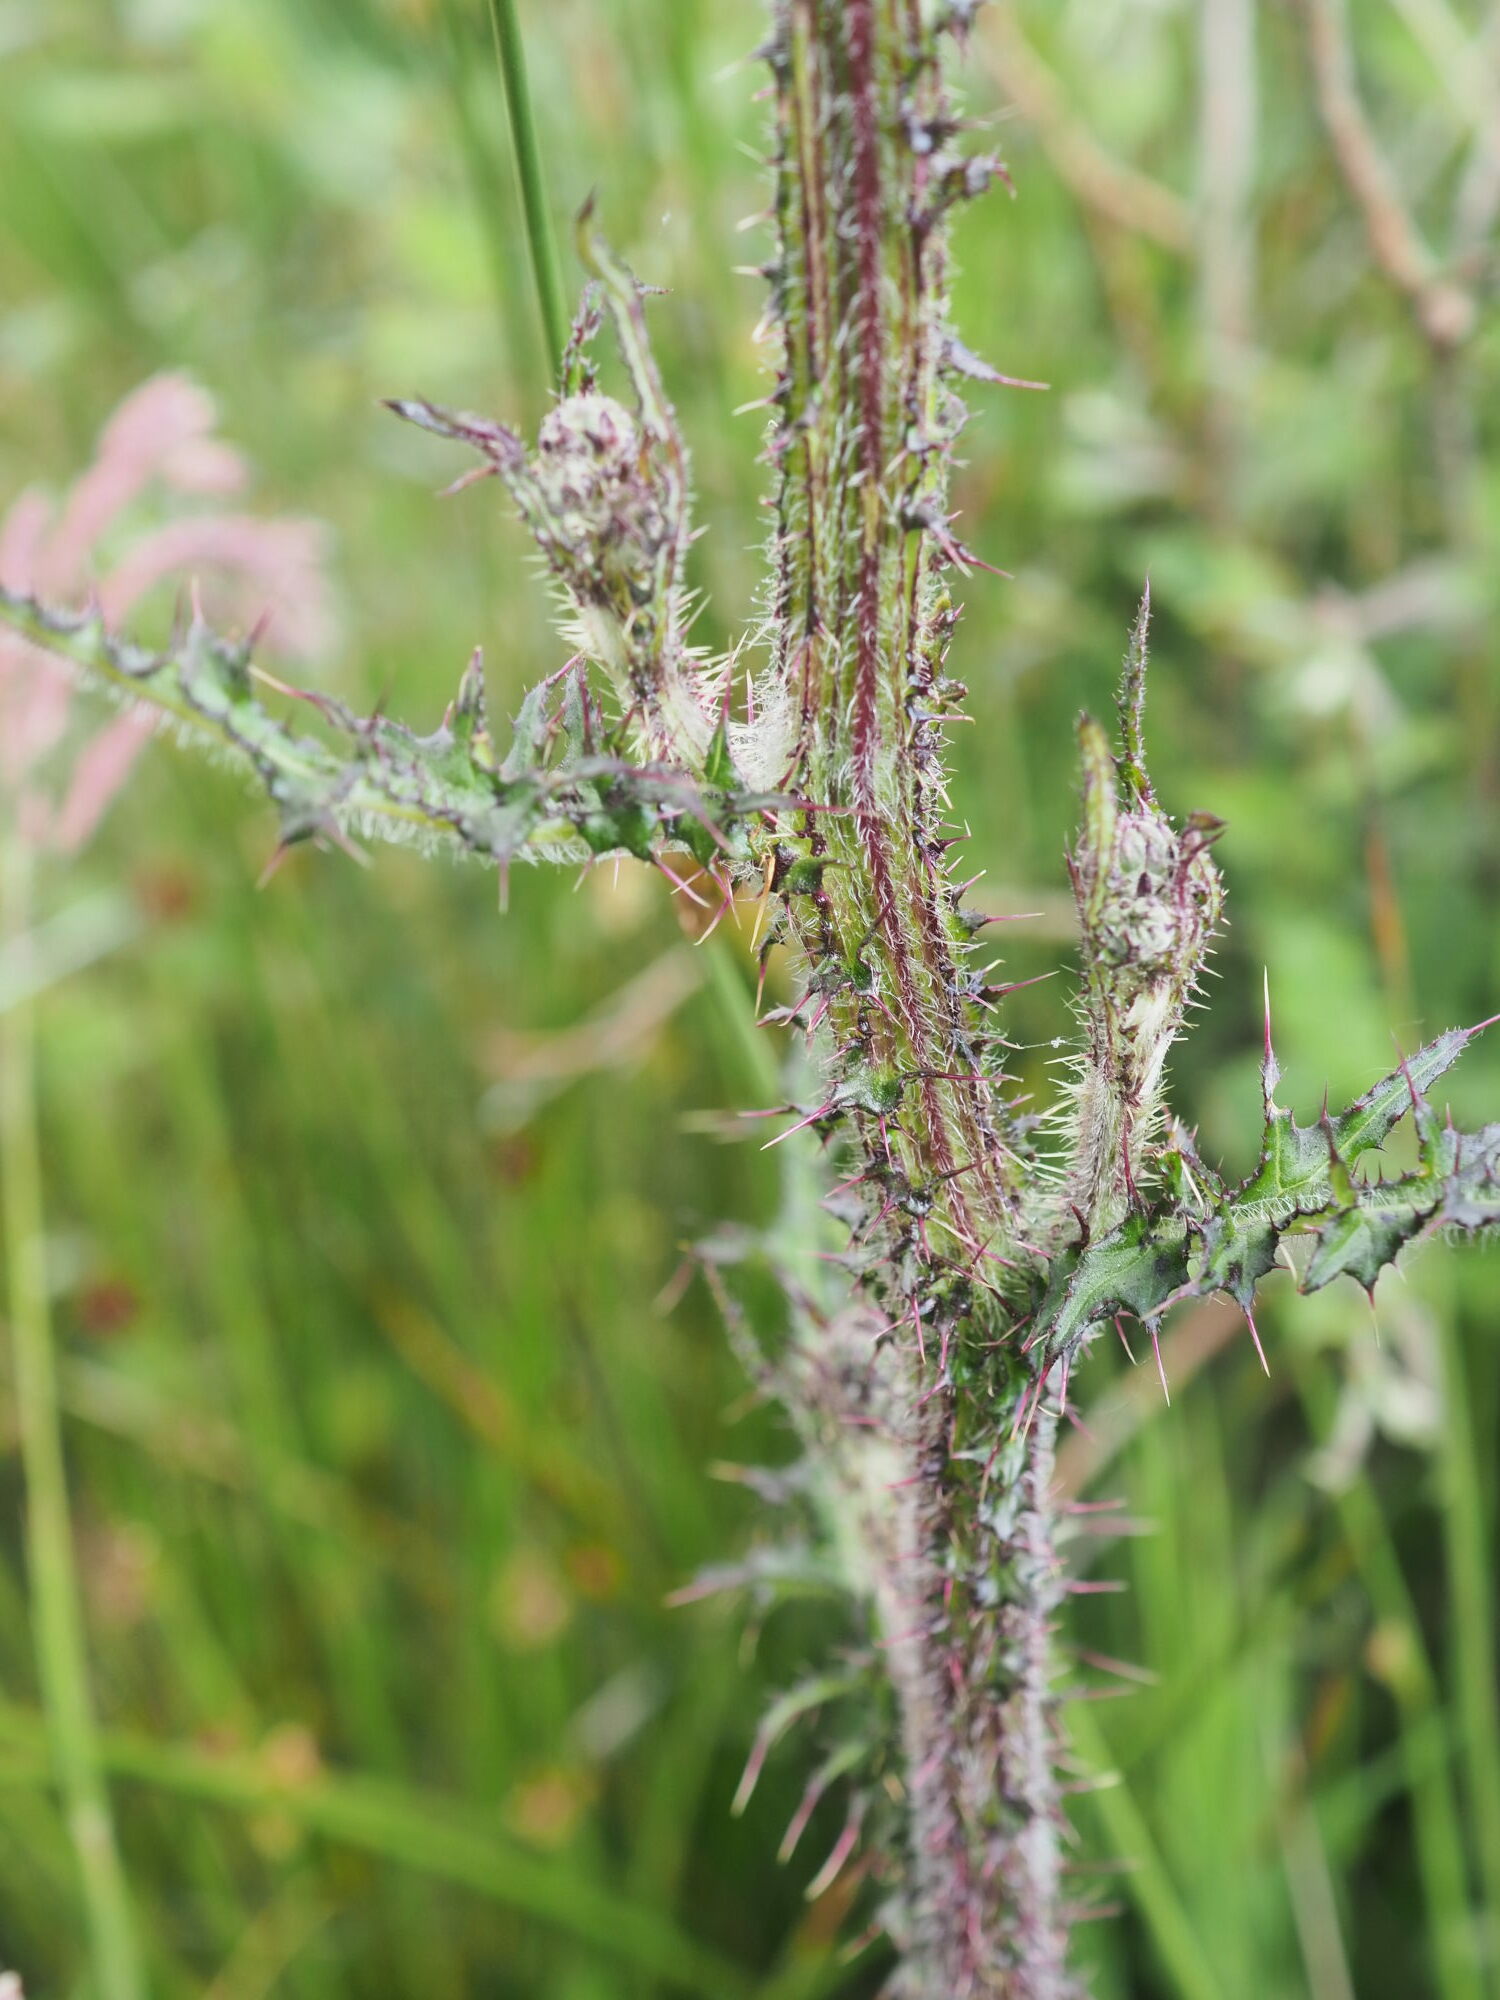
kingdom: Plantae
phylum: Tracheophyta
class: Magnoliopsida
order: Asterales
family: Asteraceae
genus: Cirsium
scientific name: Cirsium palustre
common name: Marsh thistle
